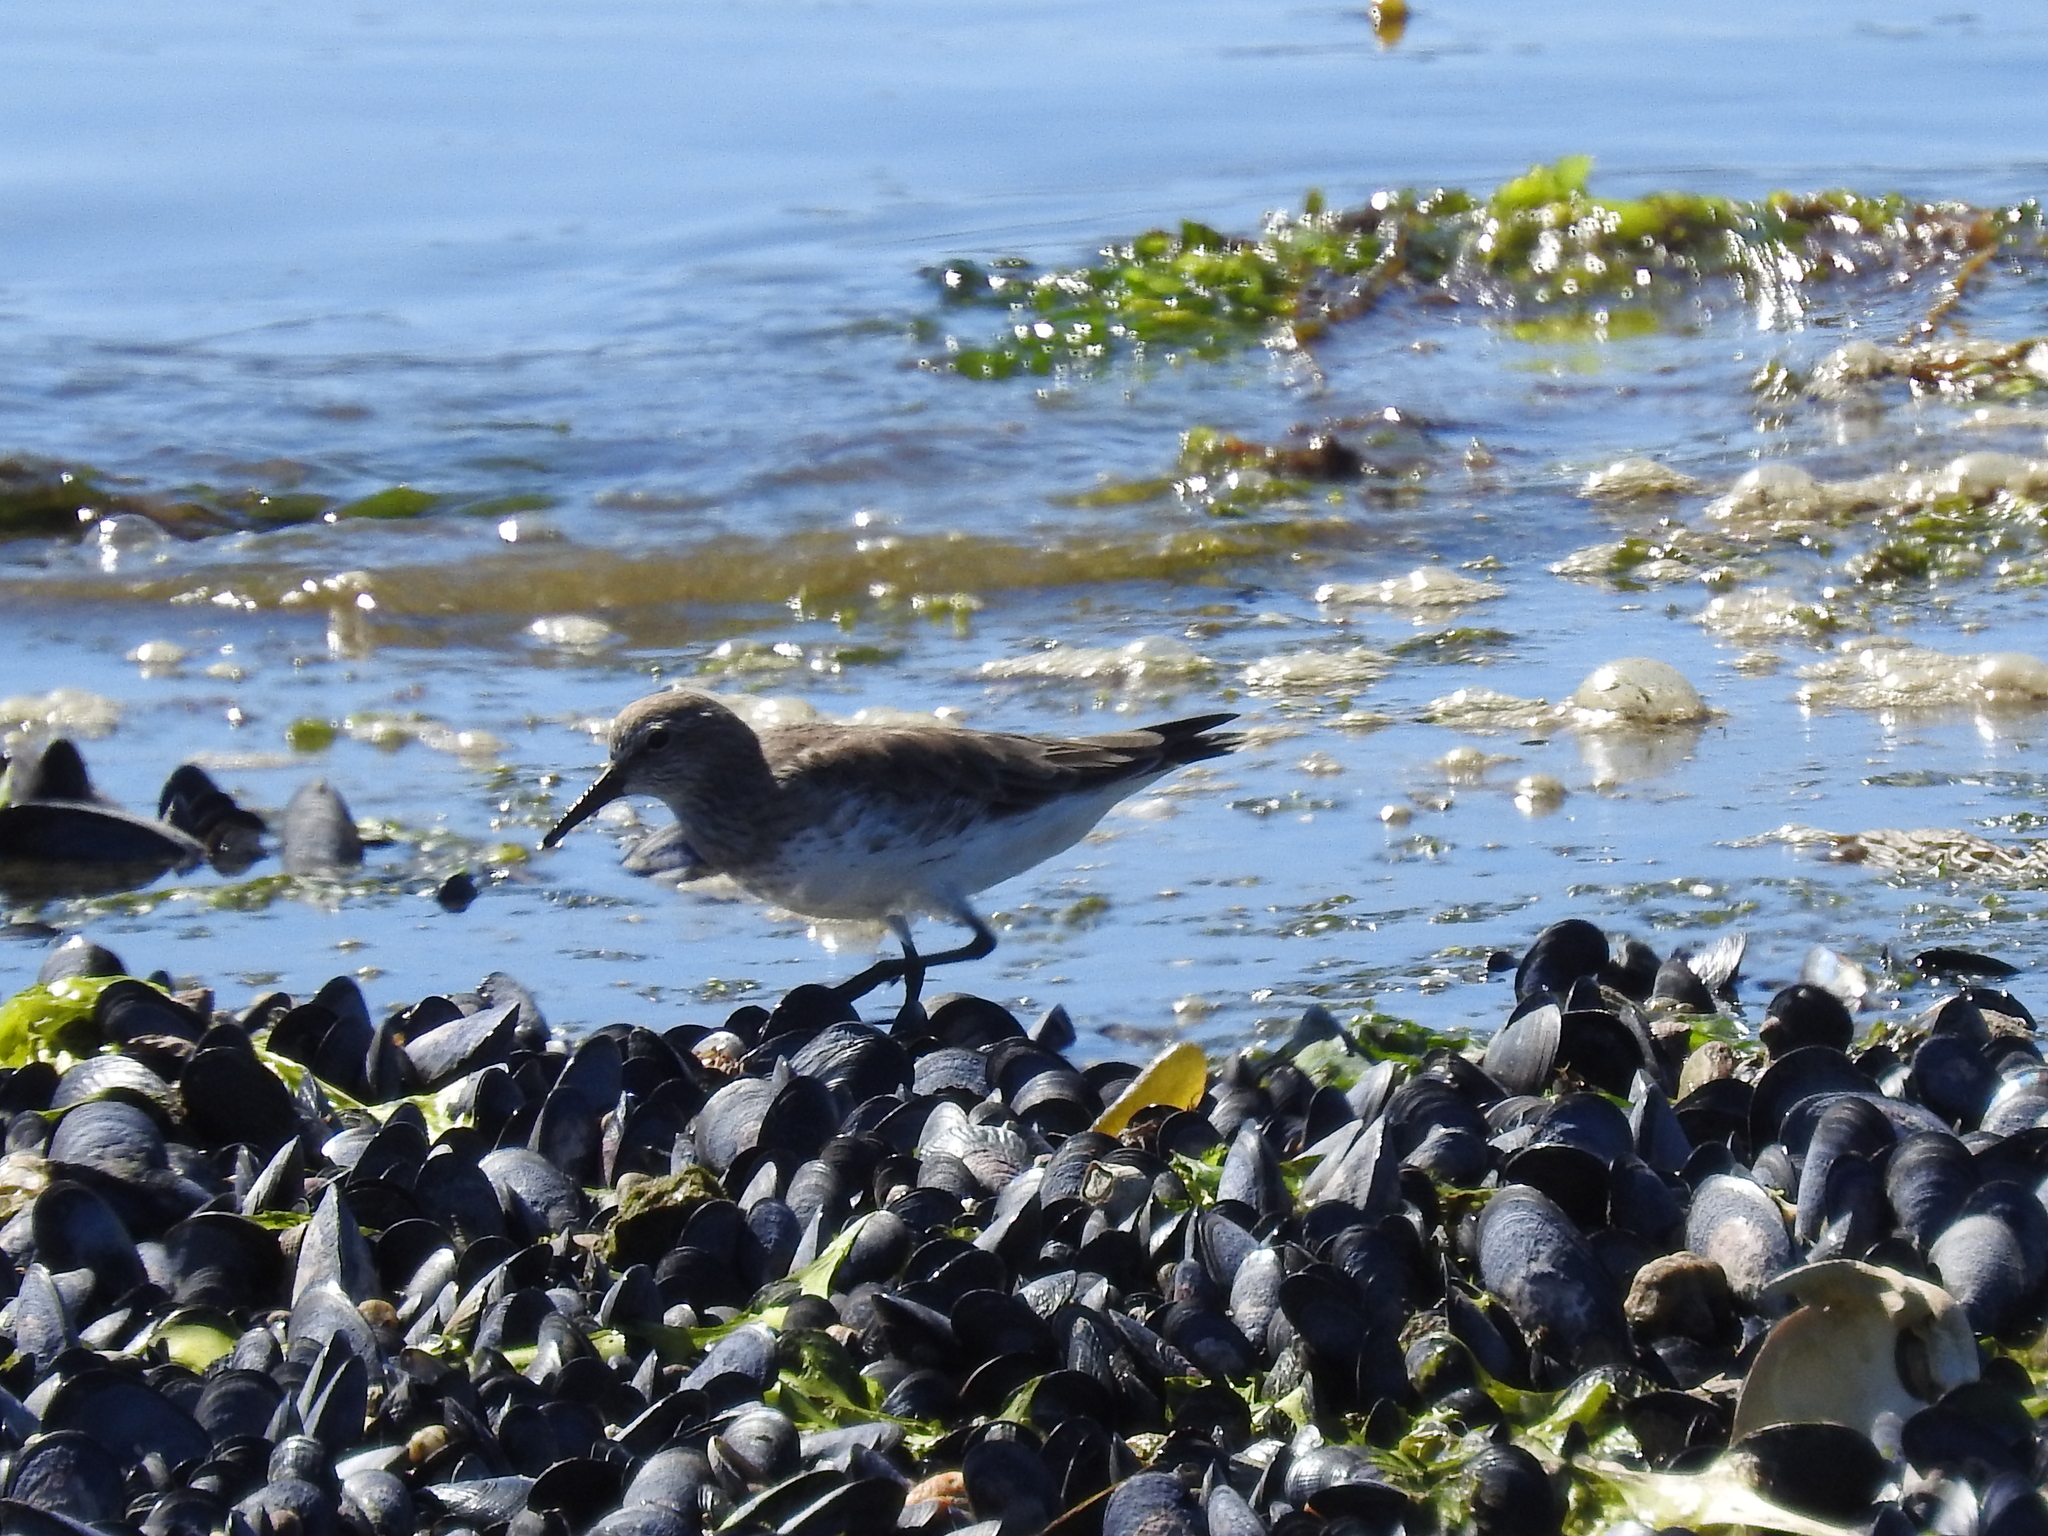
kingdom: Animalia
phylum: Chordata
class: Aves
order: Charadriiformes
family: Scolopacidae
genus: Calidris
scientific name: Calidris fuscicollis
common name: White-rumped sandpiper
